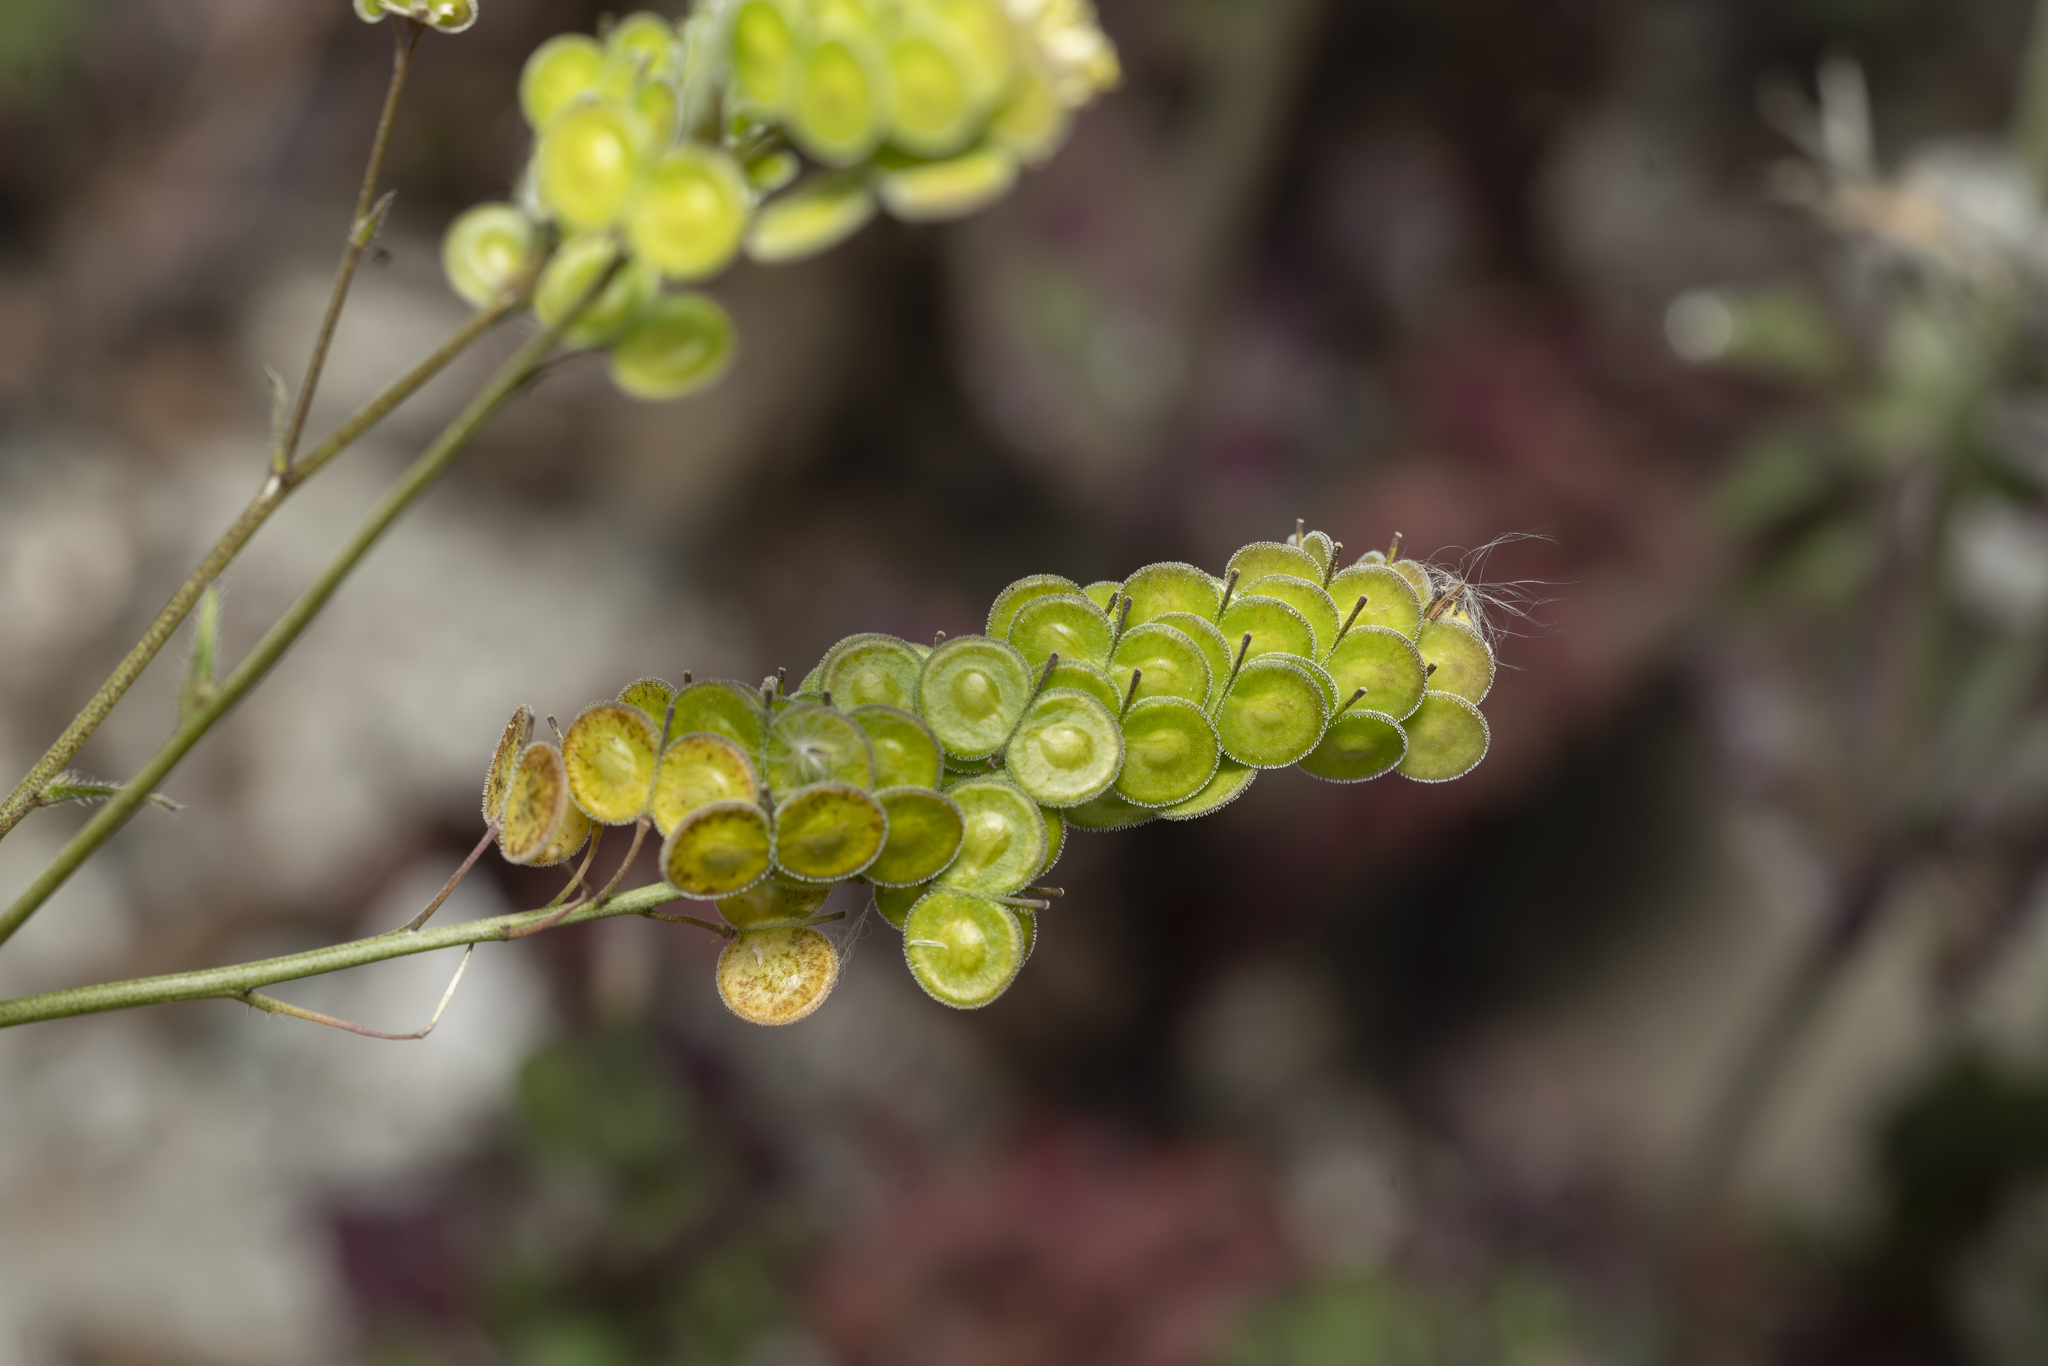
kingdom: Plantae
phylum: Tracheophyta
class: Magnoliopsida
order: Brassicales
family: Brassicaceae
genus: Biscutella
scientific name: Biscutella didyma
